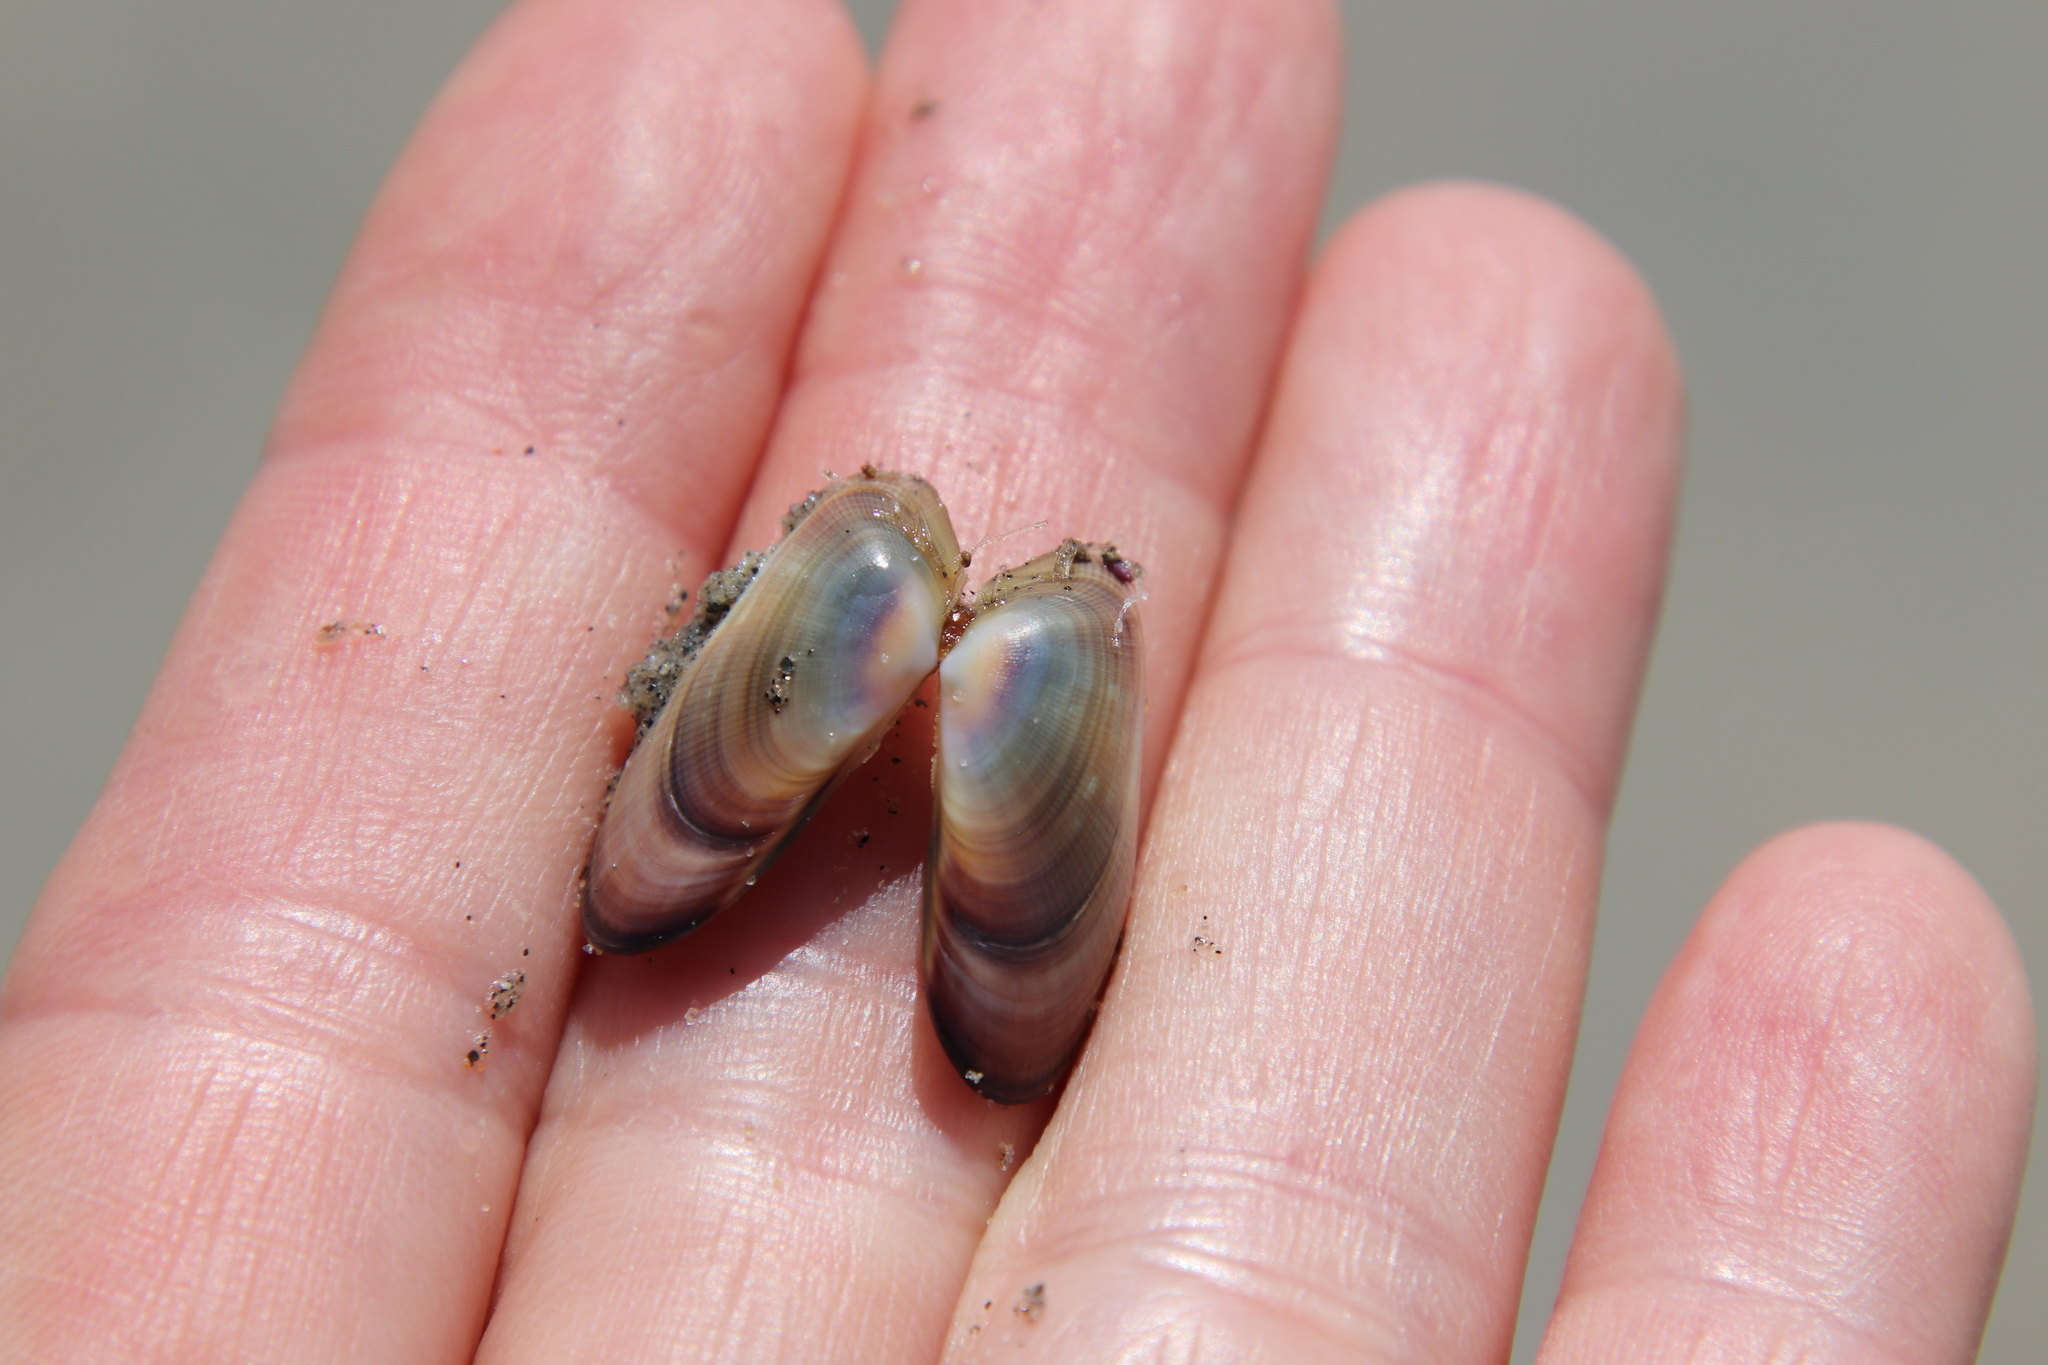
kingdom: Animalia
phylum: Mollusca
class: Bivalvia
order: Cardiida
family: Donacidae
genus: Donax
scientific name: Donax gouldii
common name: Gould beanclam
